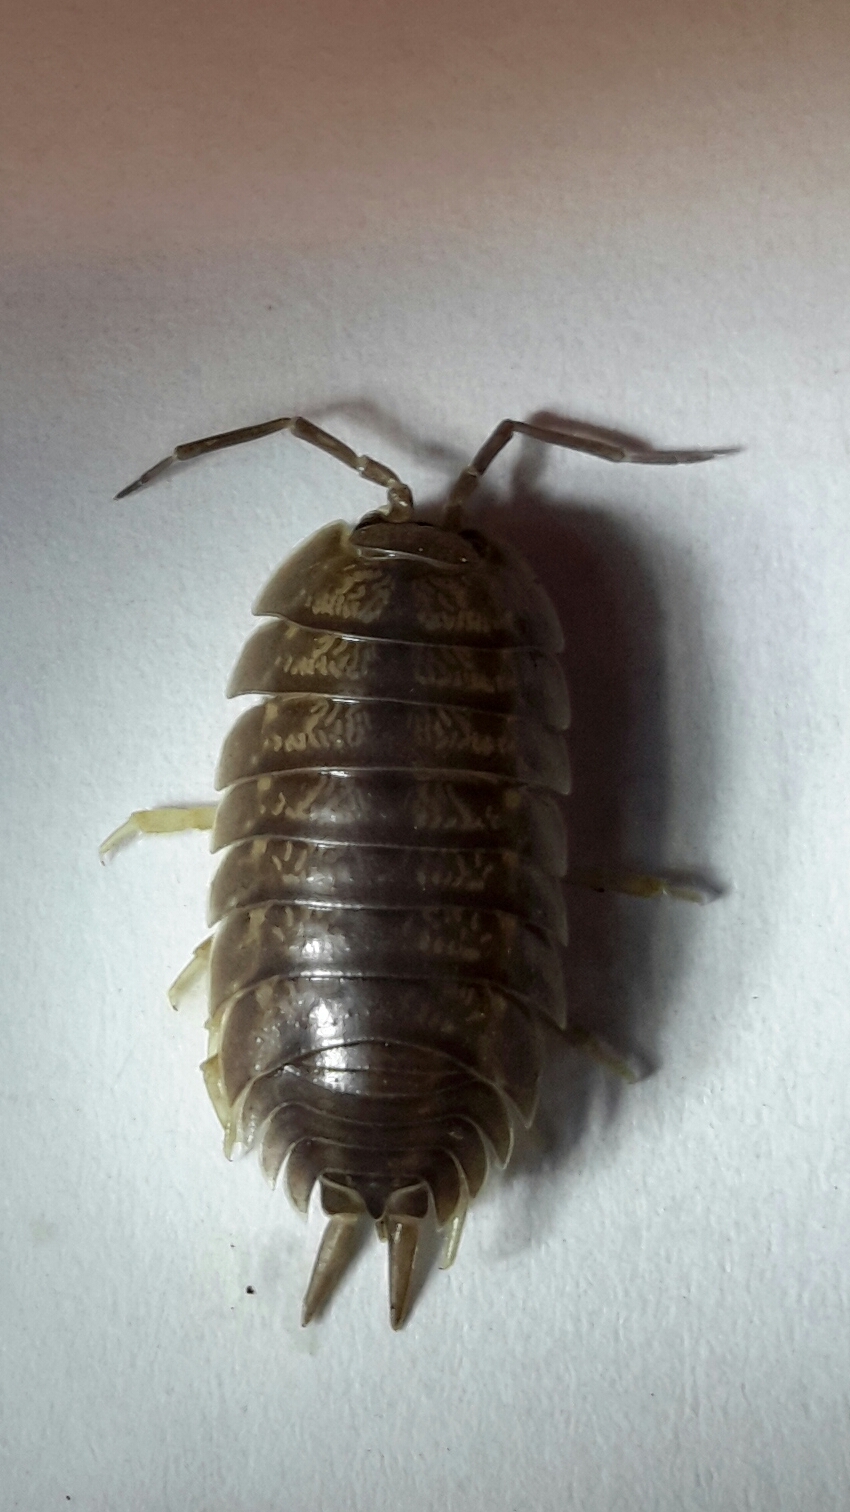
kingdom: Animalia
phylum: Arthropoda
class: Malacostraca
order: Isopoda
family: Porcellionidae
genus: Porcellio
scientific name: Porcellio laevis
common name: Swift woodlouse
